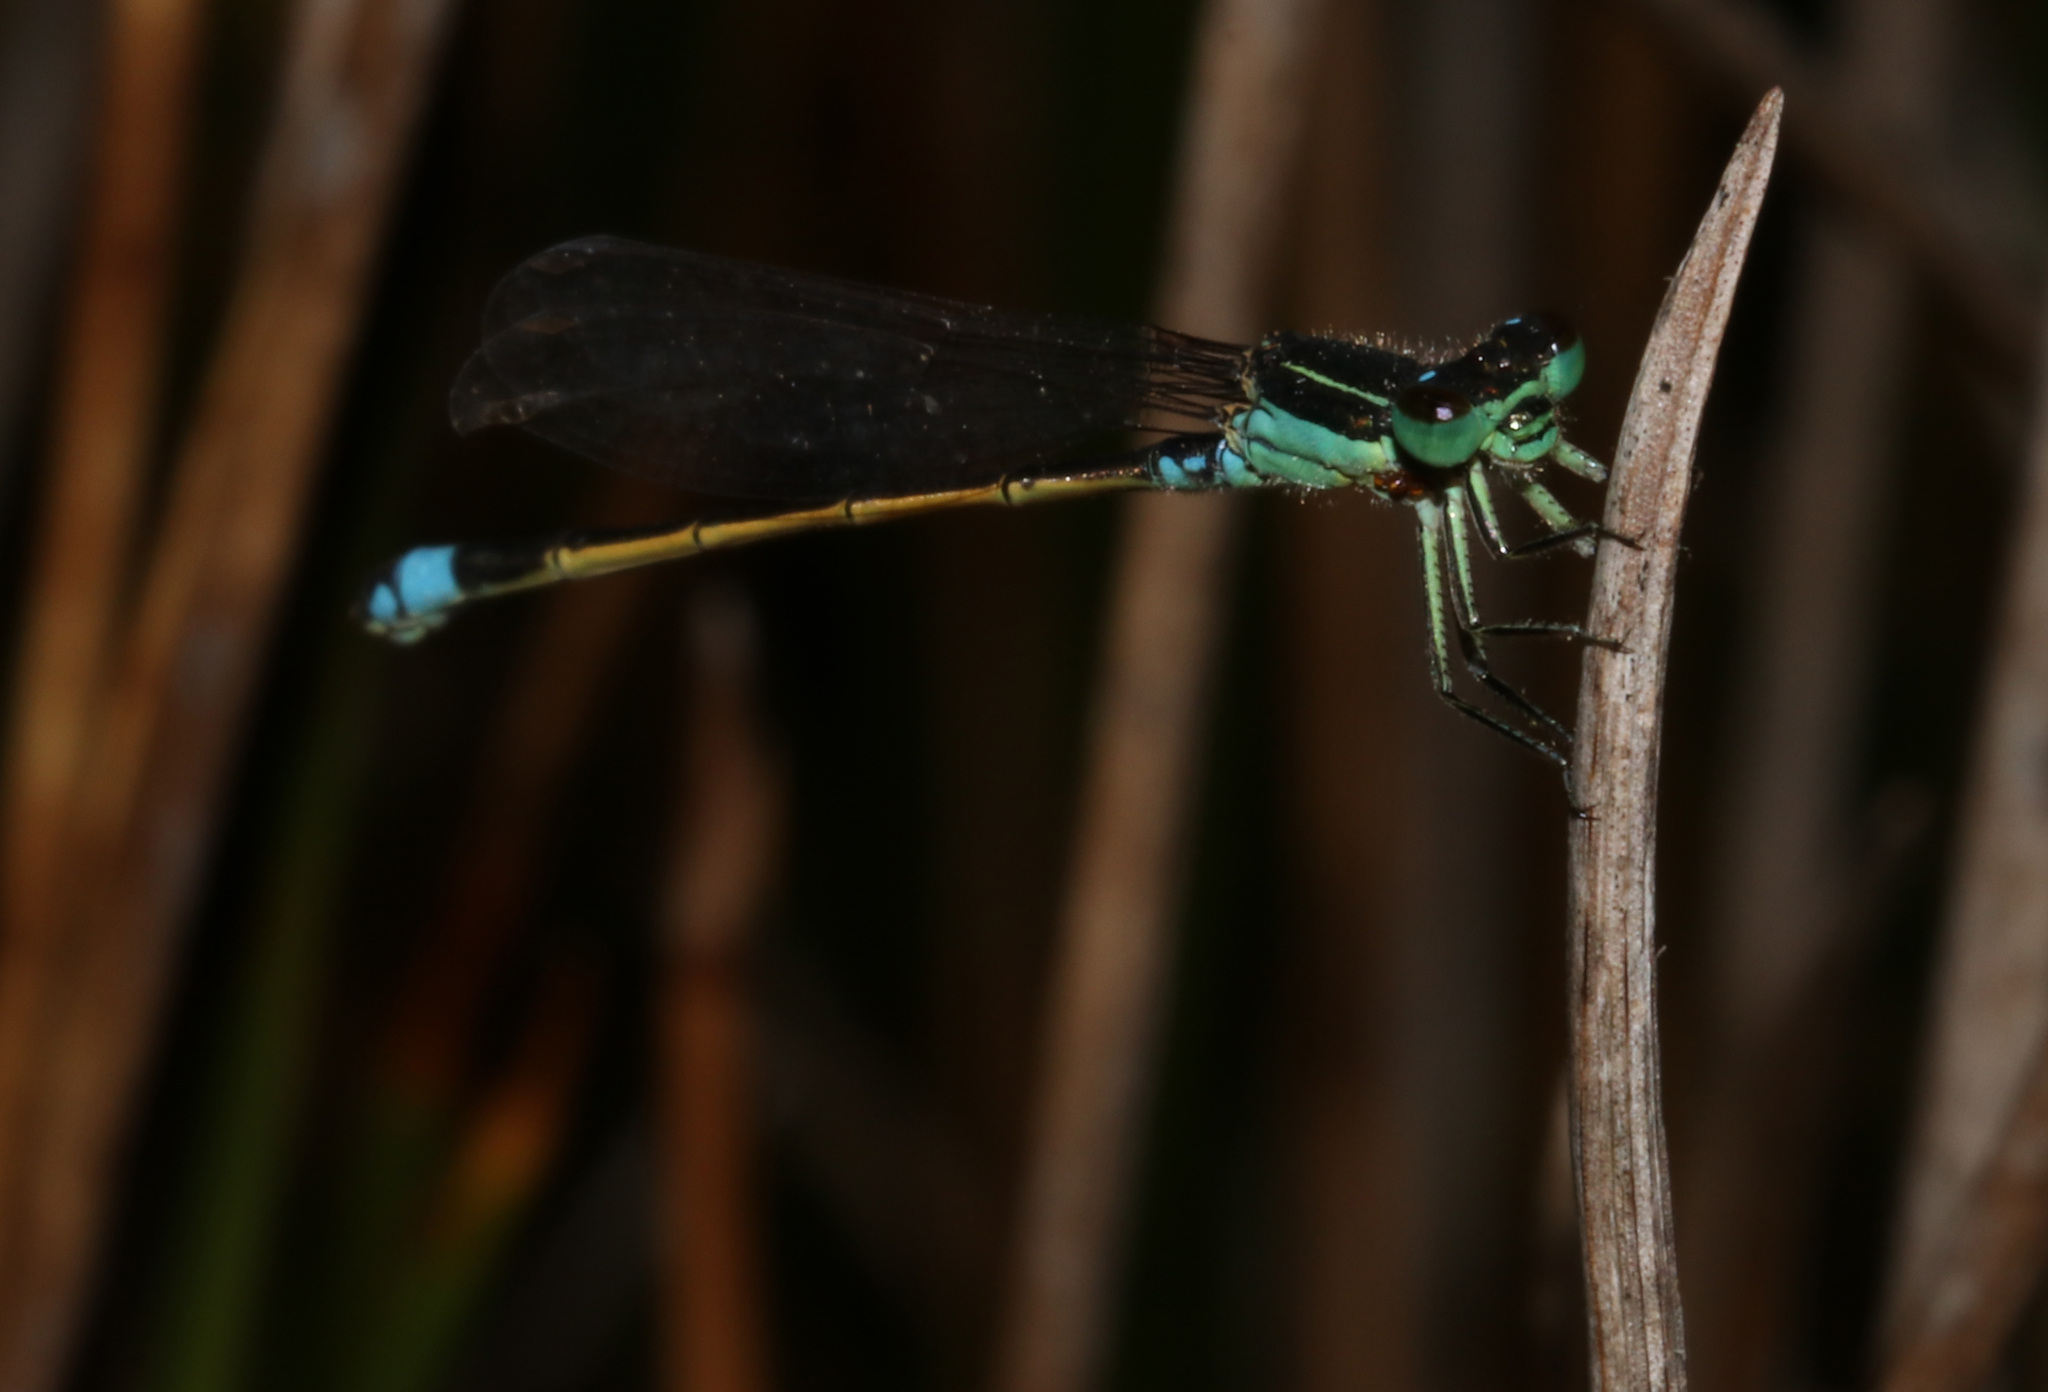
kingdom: Animalia
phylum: Arthropoda
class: Insecta
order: Odonata
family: Coenagrionidae
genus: Ischnura
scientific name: Ischnura senegalensis
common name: Tropical bluetail
